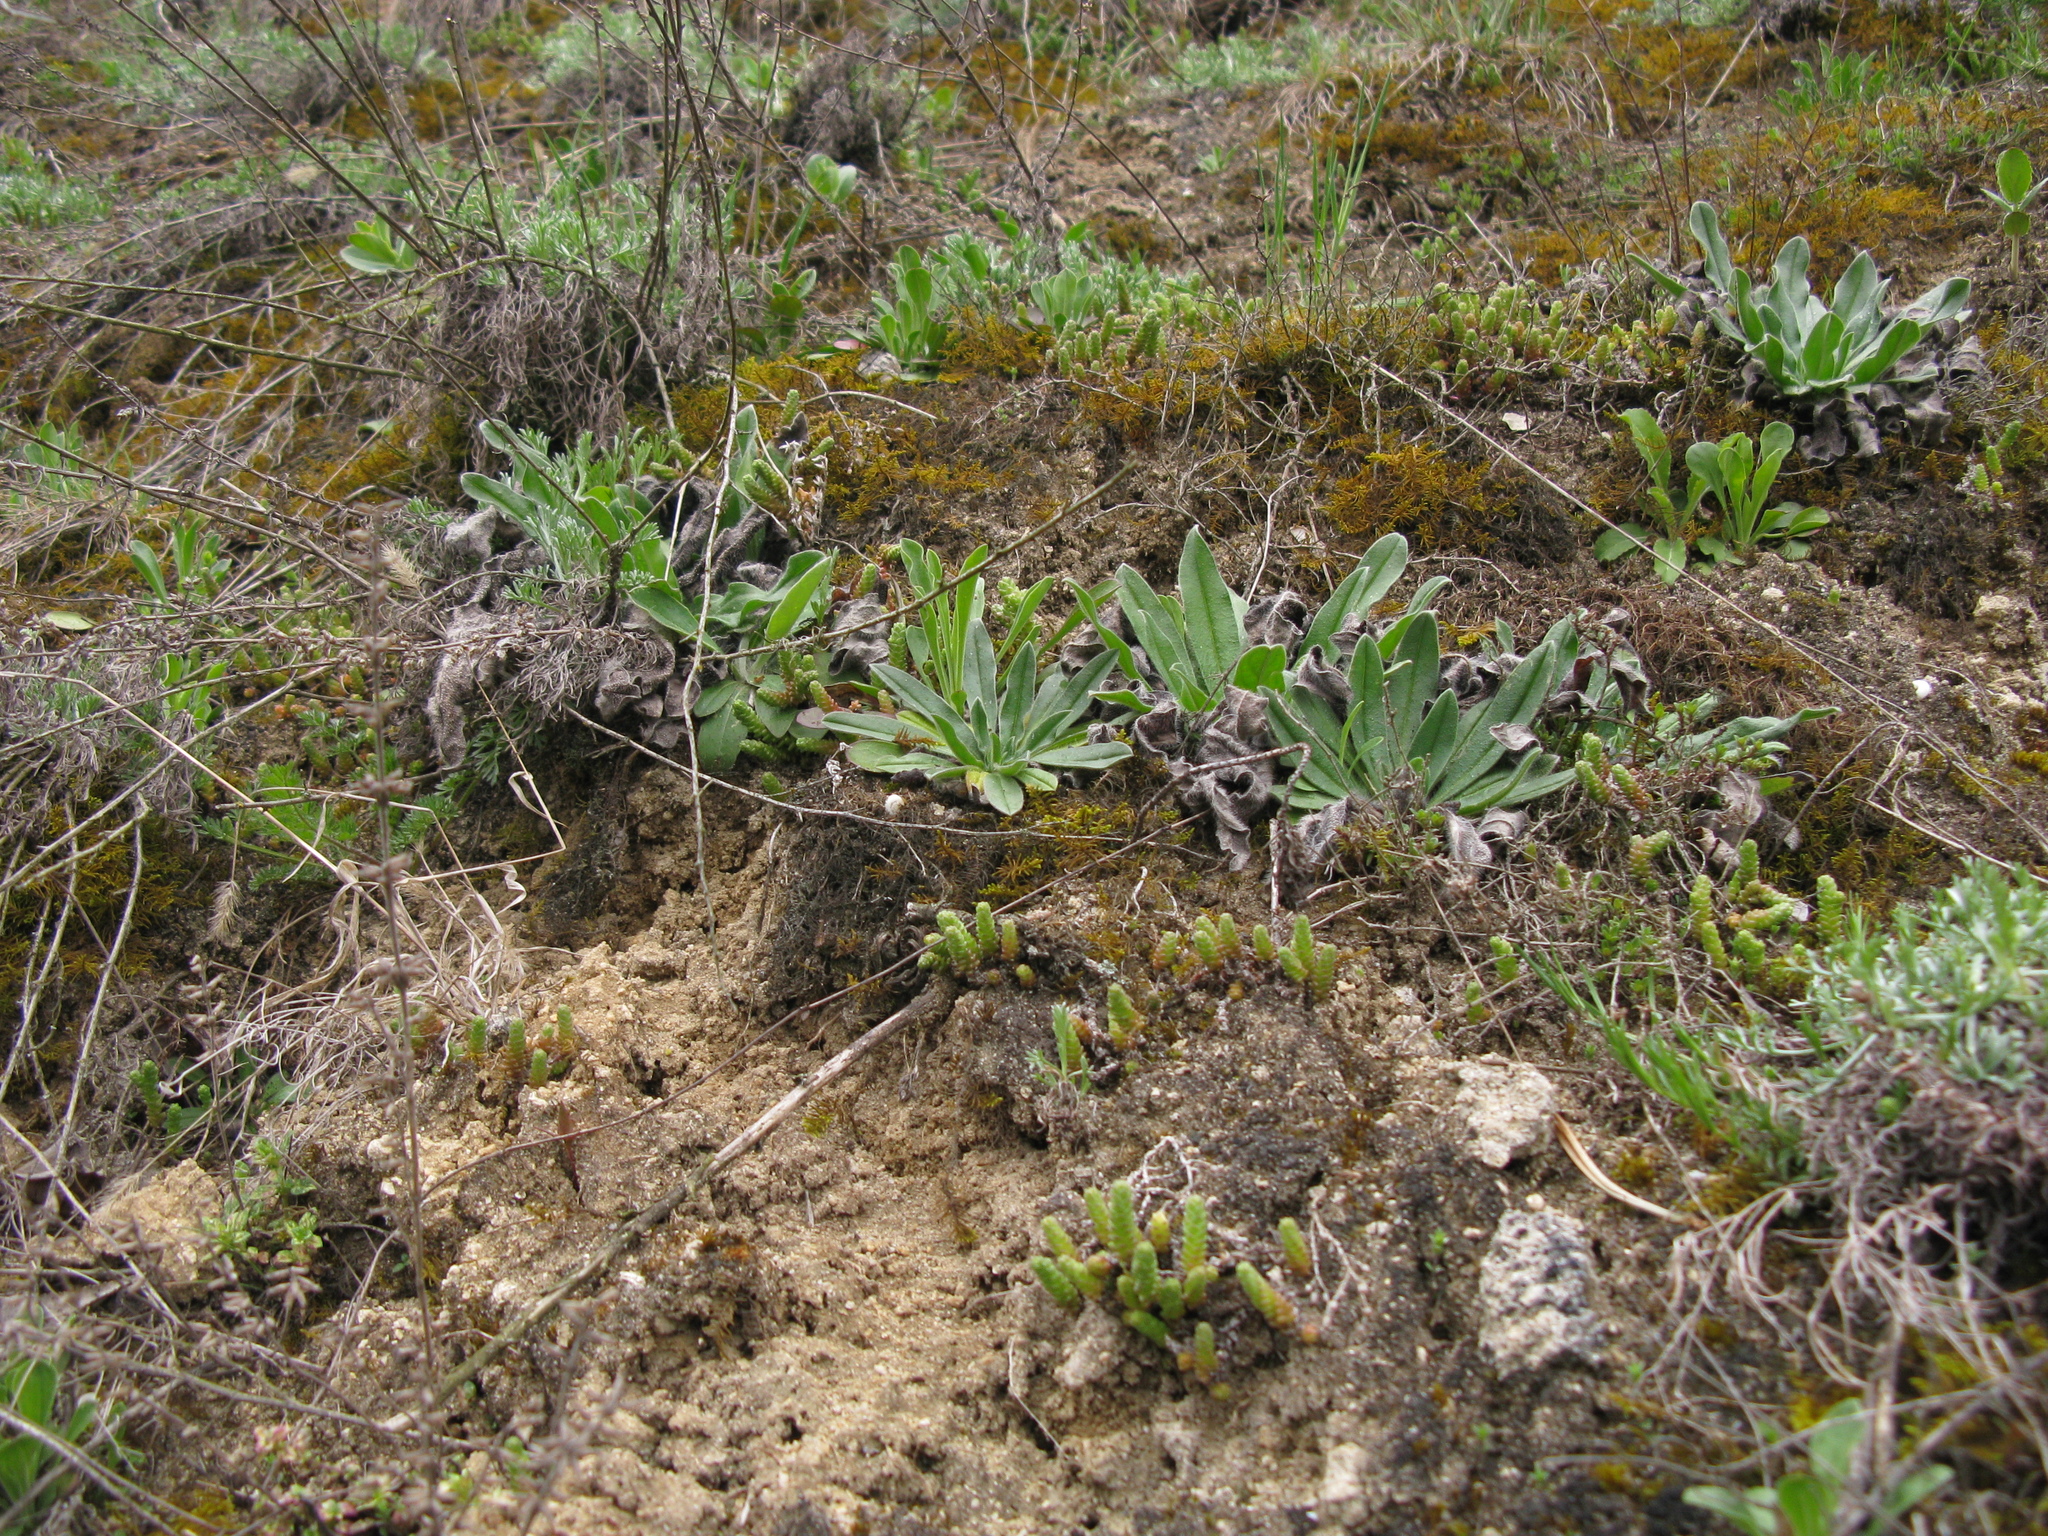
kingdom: Plantae
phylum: Tracheophyta
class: Magnoliopsida
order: Saxifragales
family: Crassulaceae
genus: Sedum
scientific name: Sedum acre
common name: Biting stonecrop
